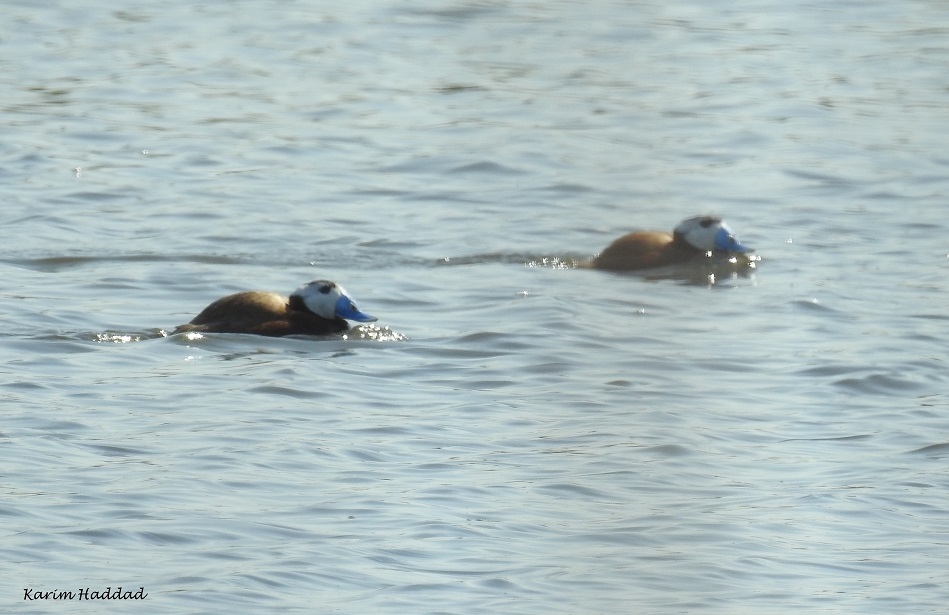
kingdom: Animalia
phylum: Chordata
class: Aves
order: Anseriformes
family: Anatidae
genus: Oxyura
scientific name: Oxyura leucocephala
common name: White-headed duck
